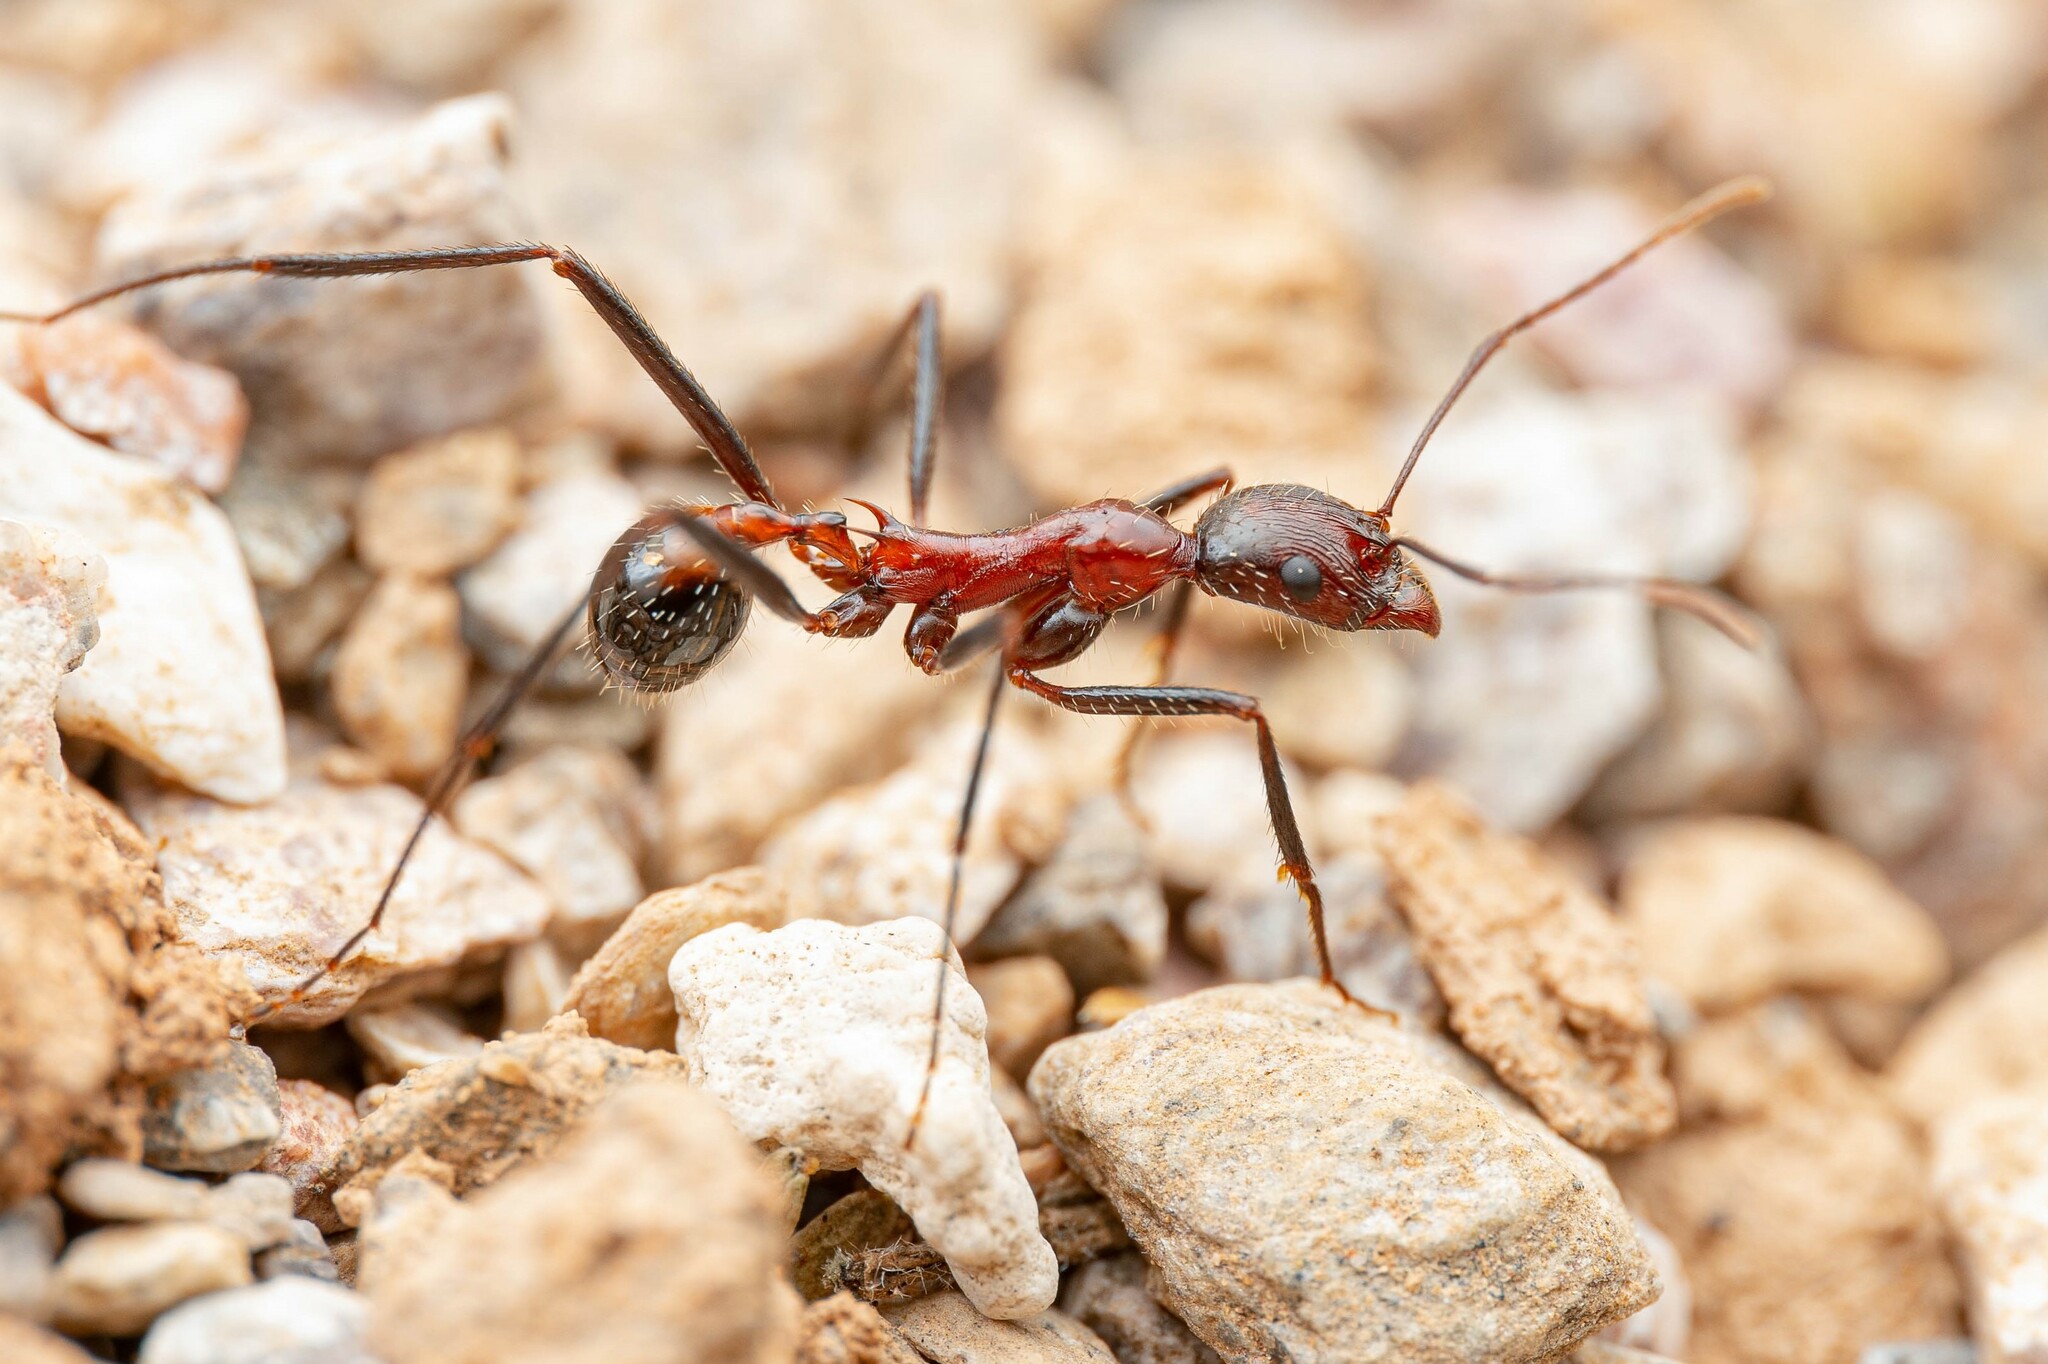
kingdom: Animalia
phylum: Arthropoda
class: Insecta
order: Hymenoptera
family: Formicidae
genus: Novomessor
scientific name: Novomessor cockerelli
